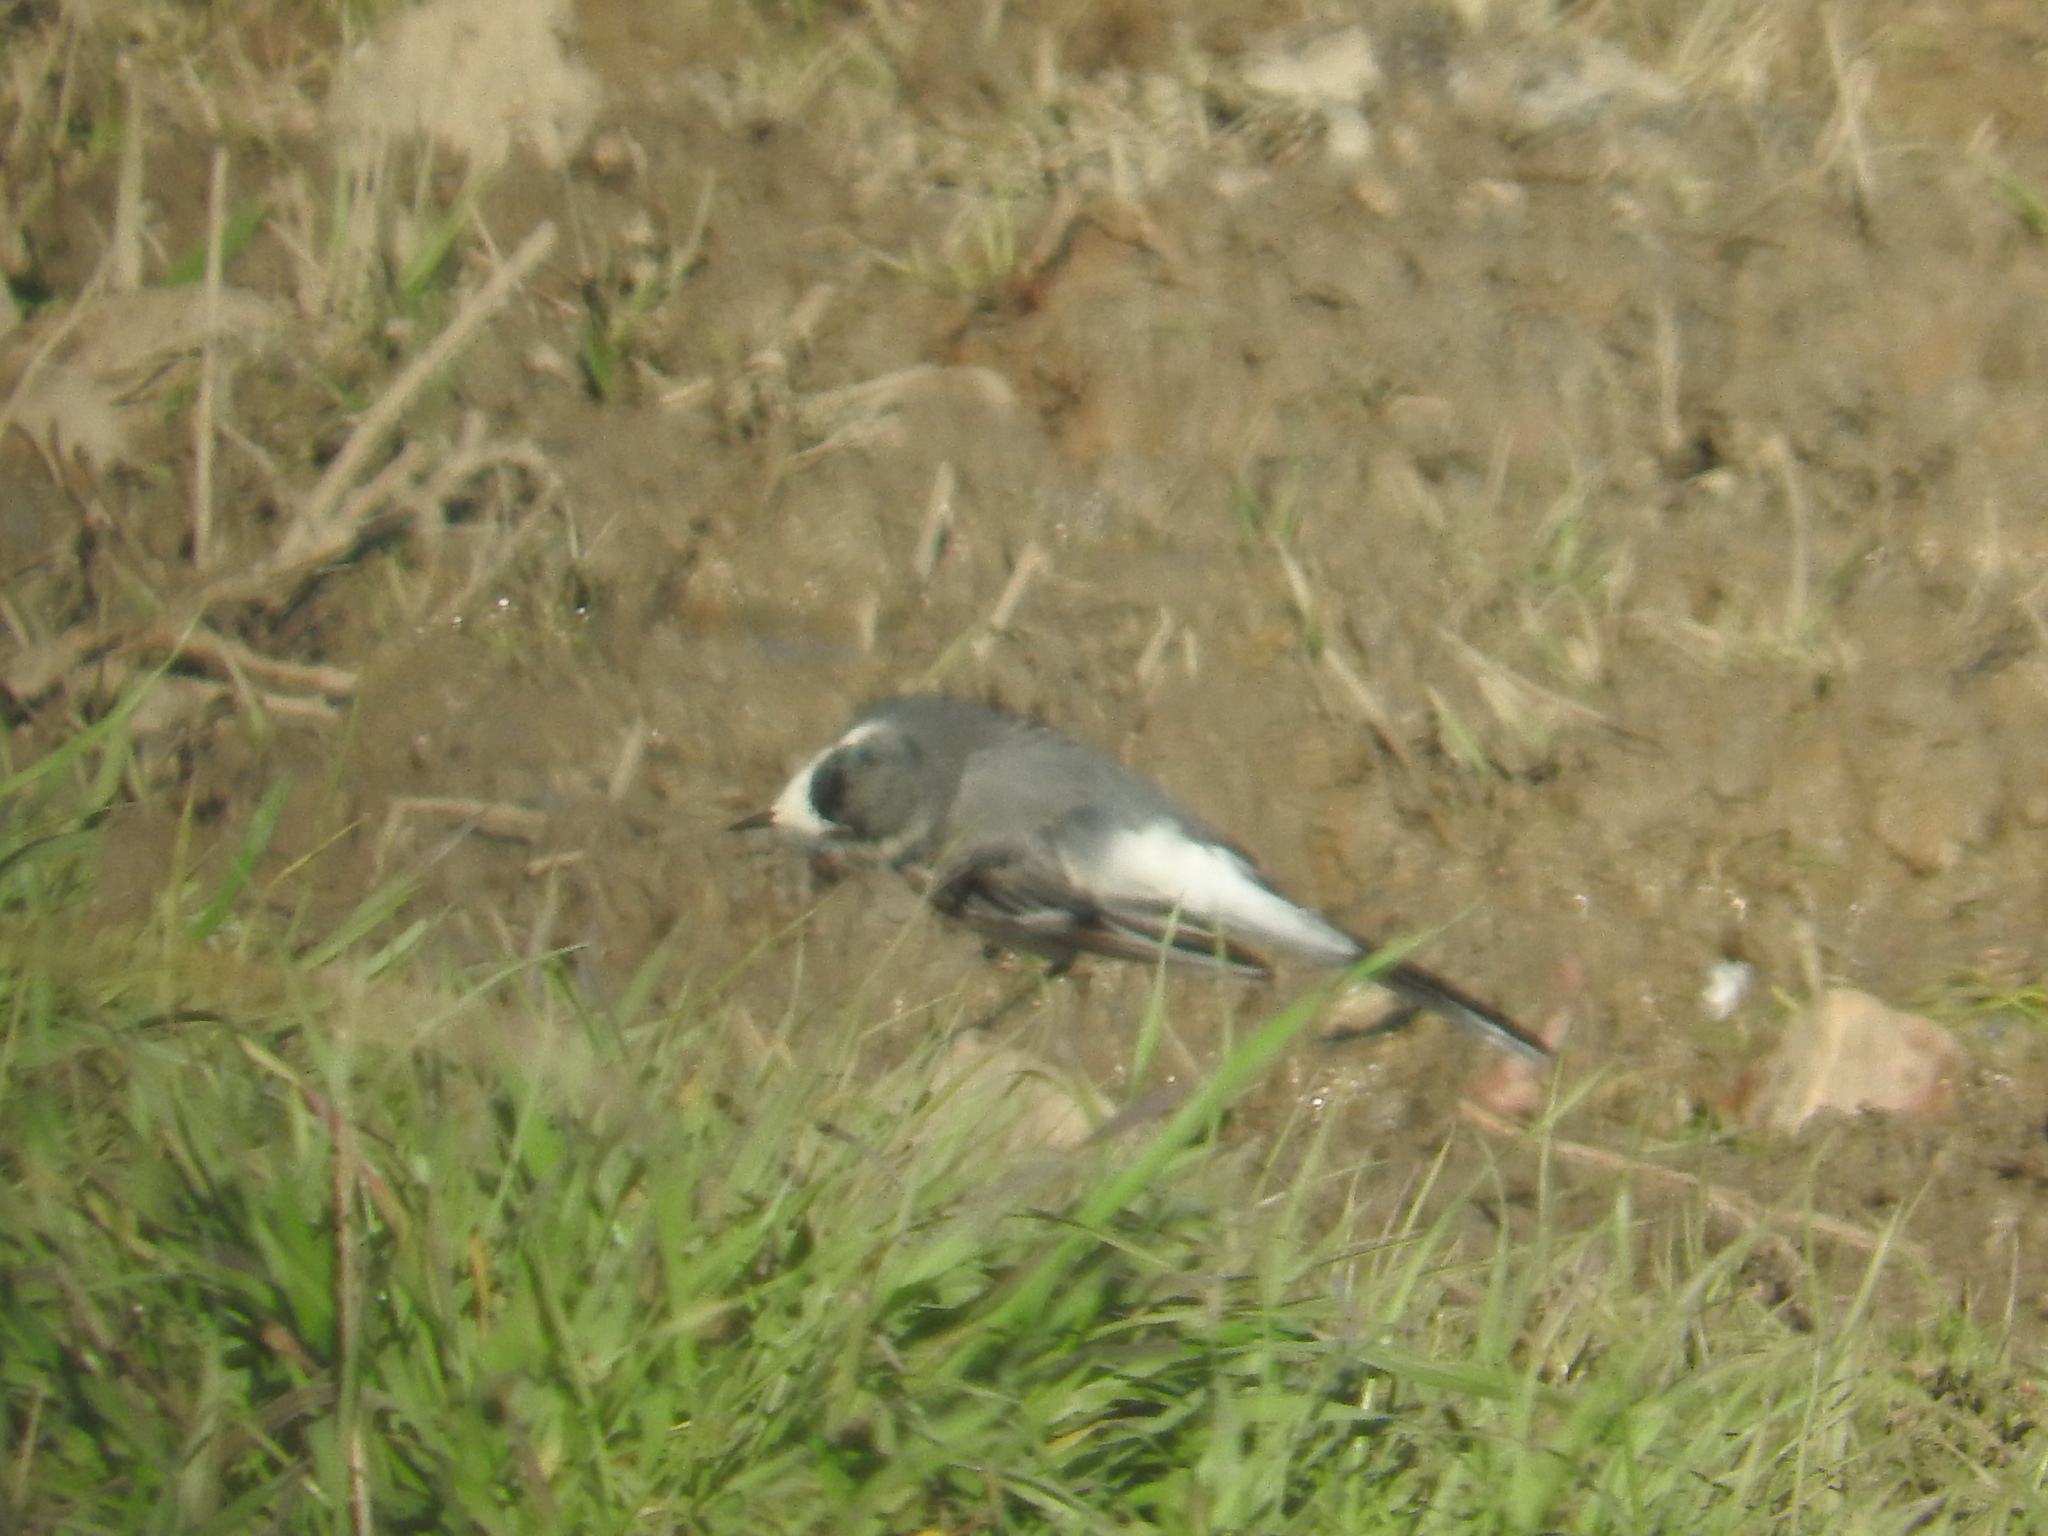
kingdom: Animalia
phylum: Chordata
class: Aves
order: Passeriformes
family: Motacillidae
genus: Motacilla
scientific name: Motacilla alba
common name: White wagtail
